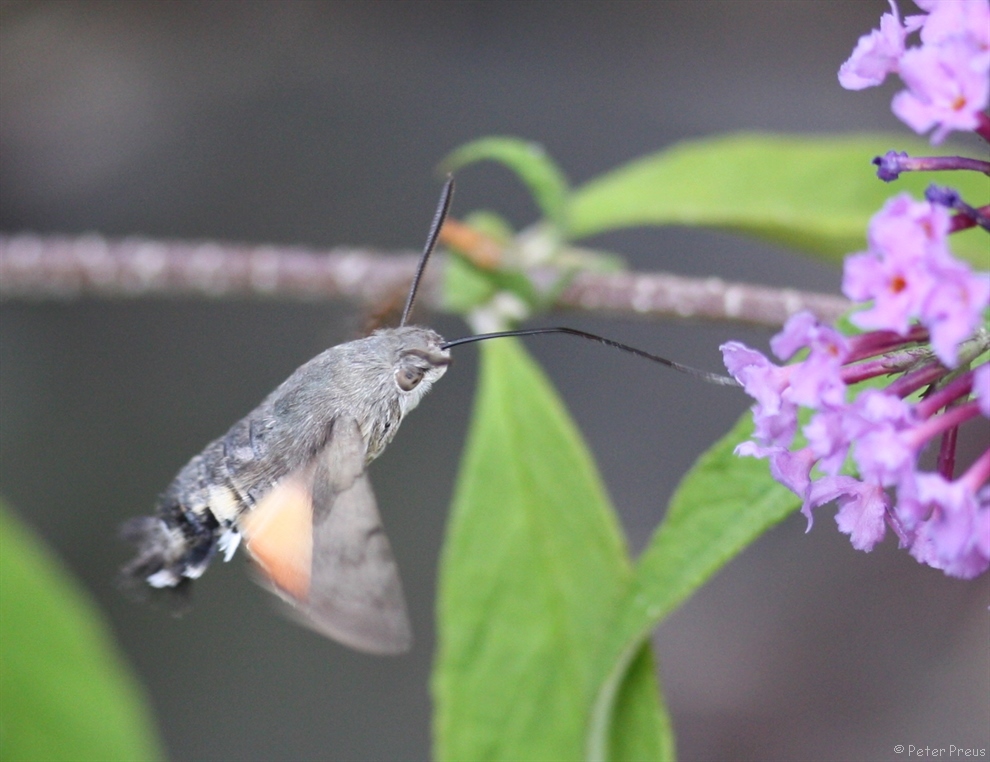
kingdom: Animalia
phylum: Arthropoda
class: Insecta
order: Lepidoptera
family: Sphingidae
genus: Macroglossum
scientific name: Macroglossum stellatarum
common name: Humming-bird hawk-moth
